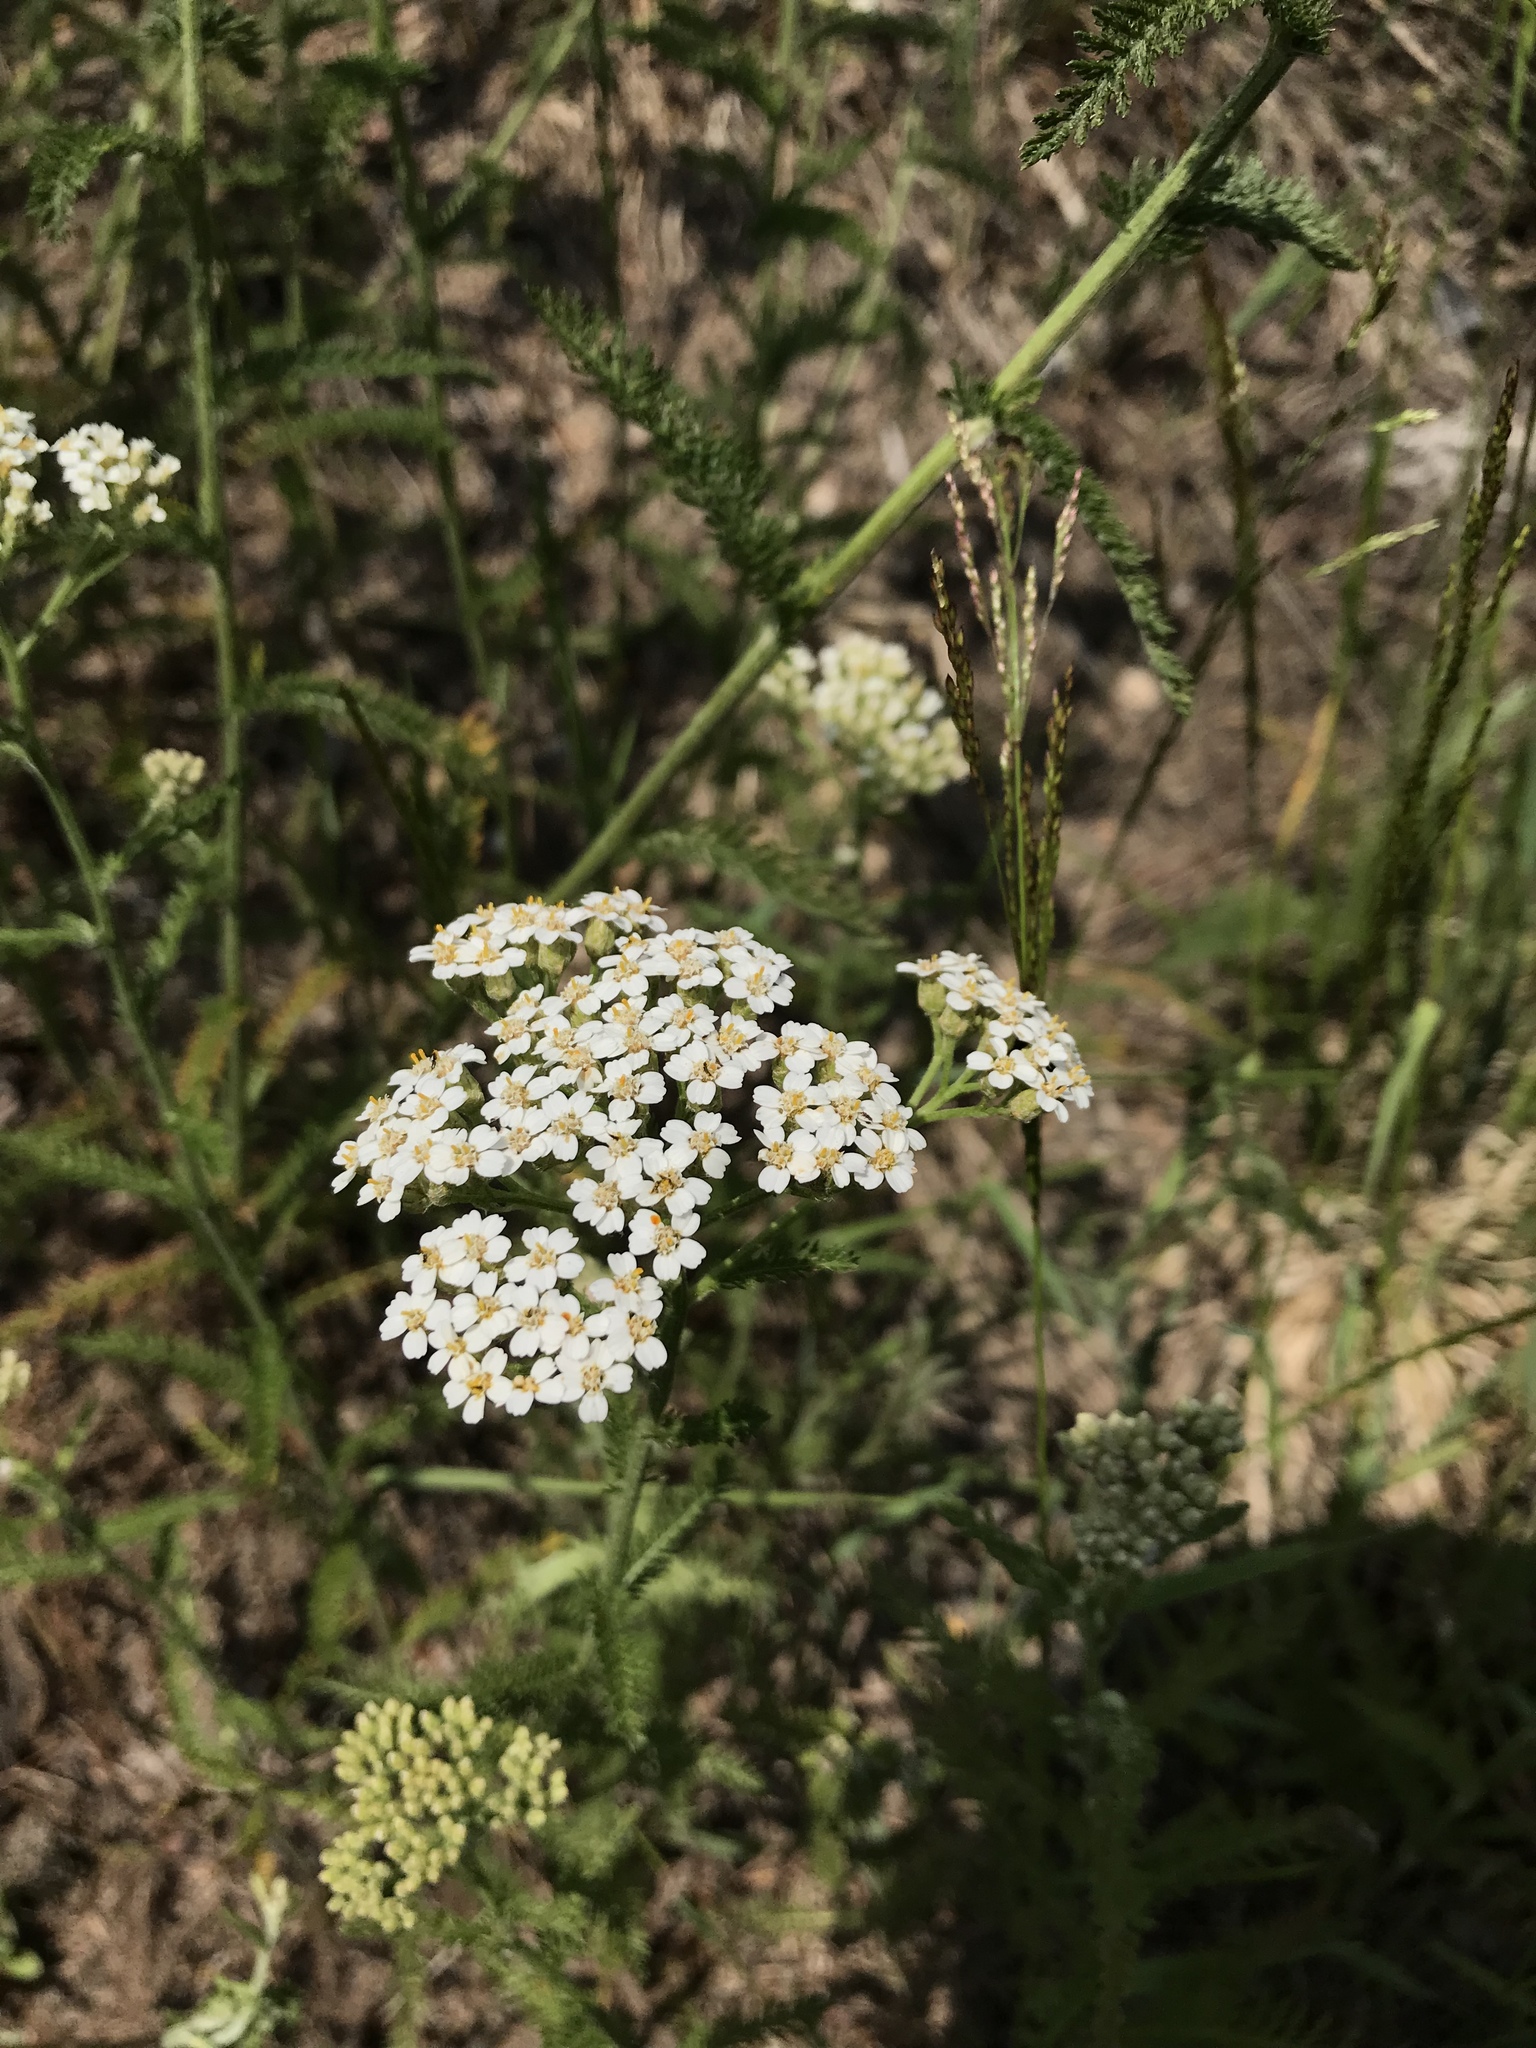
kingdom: Plantae
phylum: Tracheophyta
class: Magnoliopsida
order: Asterales
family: Asteraceae
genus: Achillea
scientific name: Achillea millefolium
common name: Yarrow
